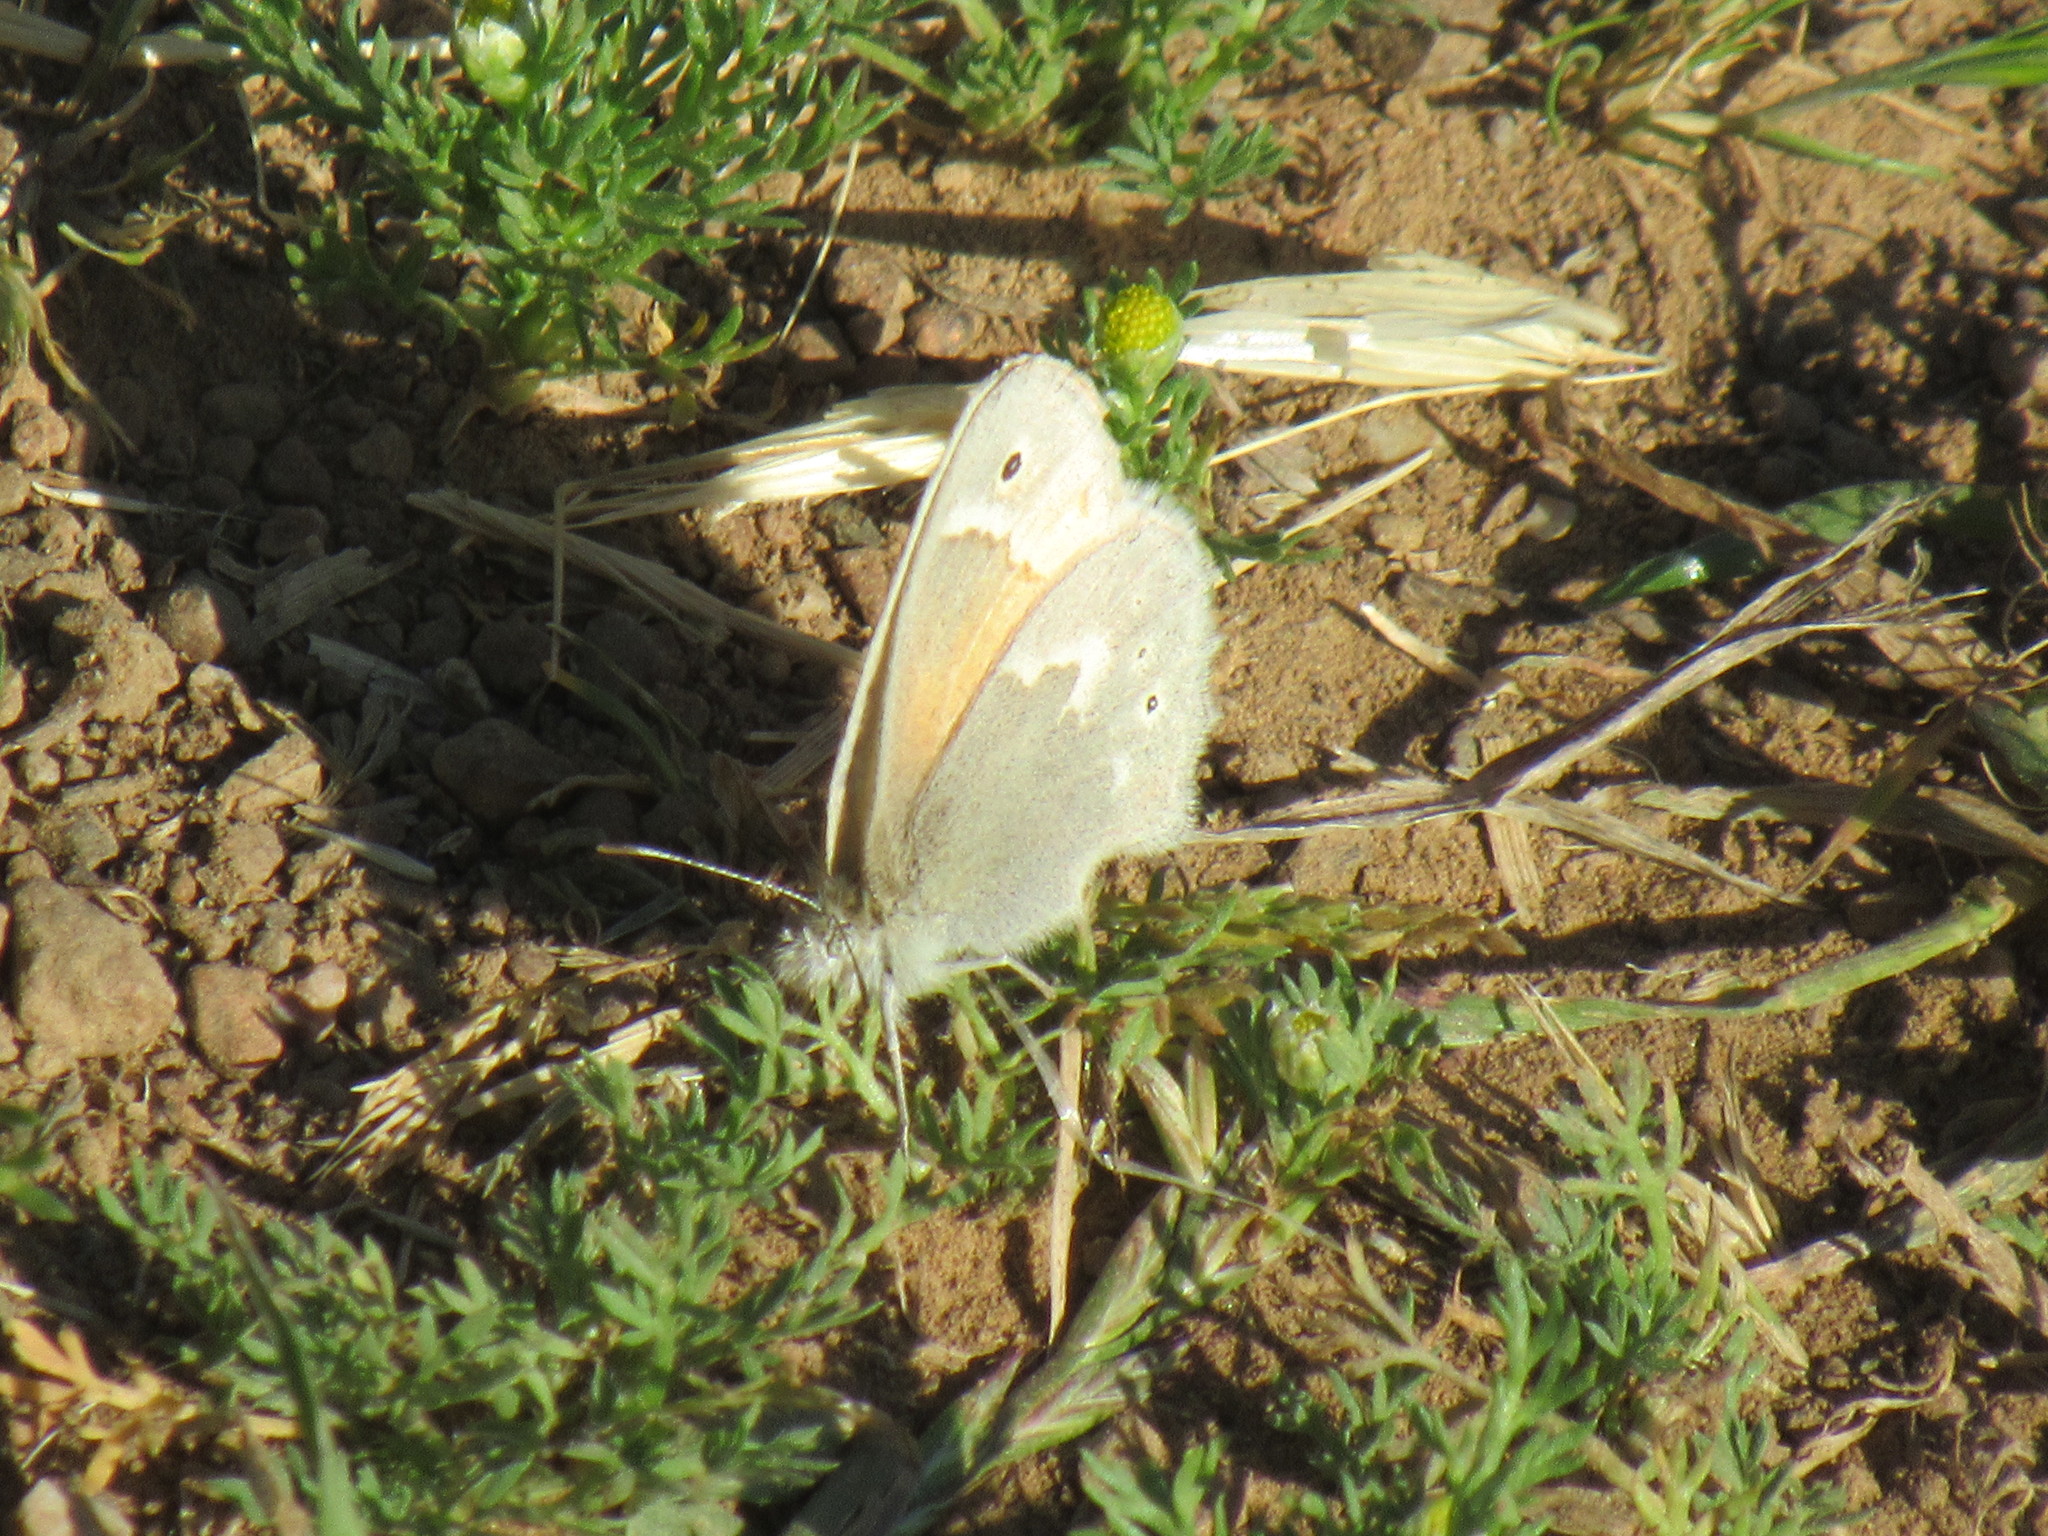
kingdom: Animalia
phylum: Arthropoda
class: Insecta
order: Lepidoptera
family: Nymphalidae
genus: Coenonympha
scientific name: Coenonympha california
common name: Common ringlet
